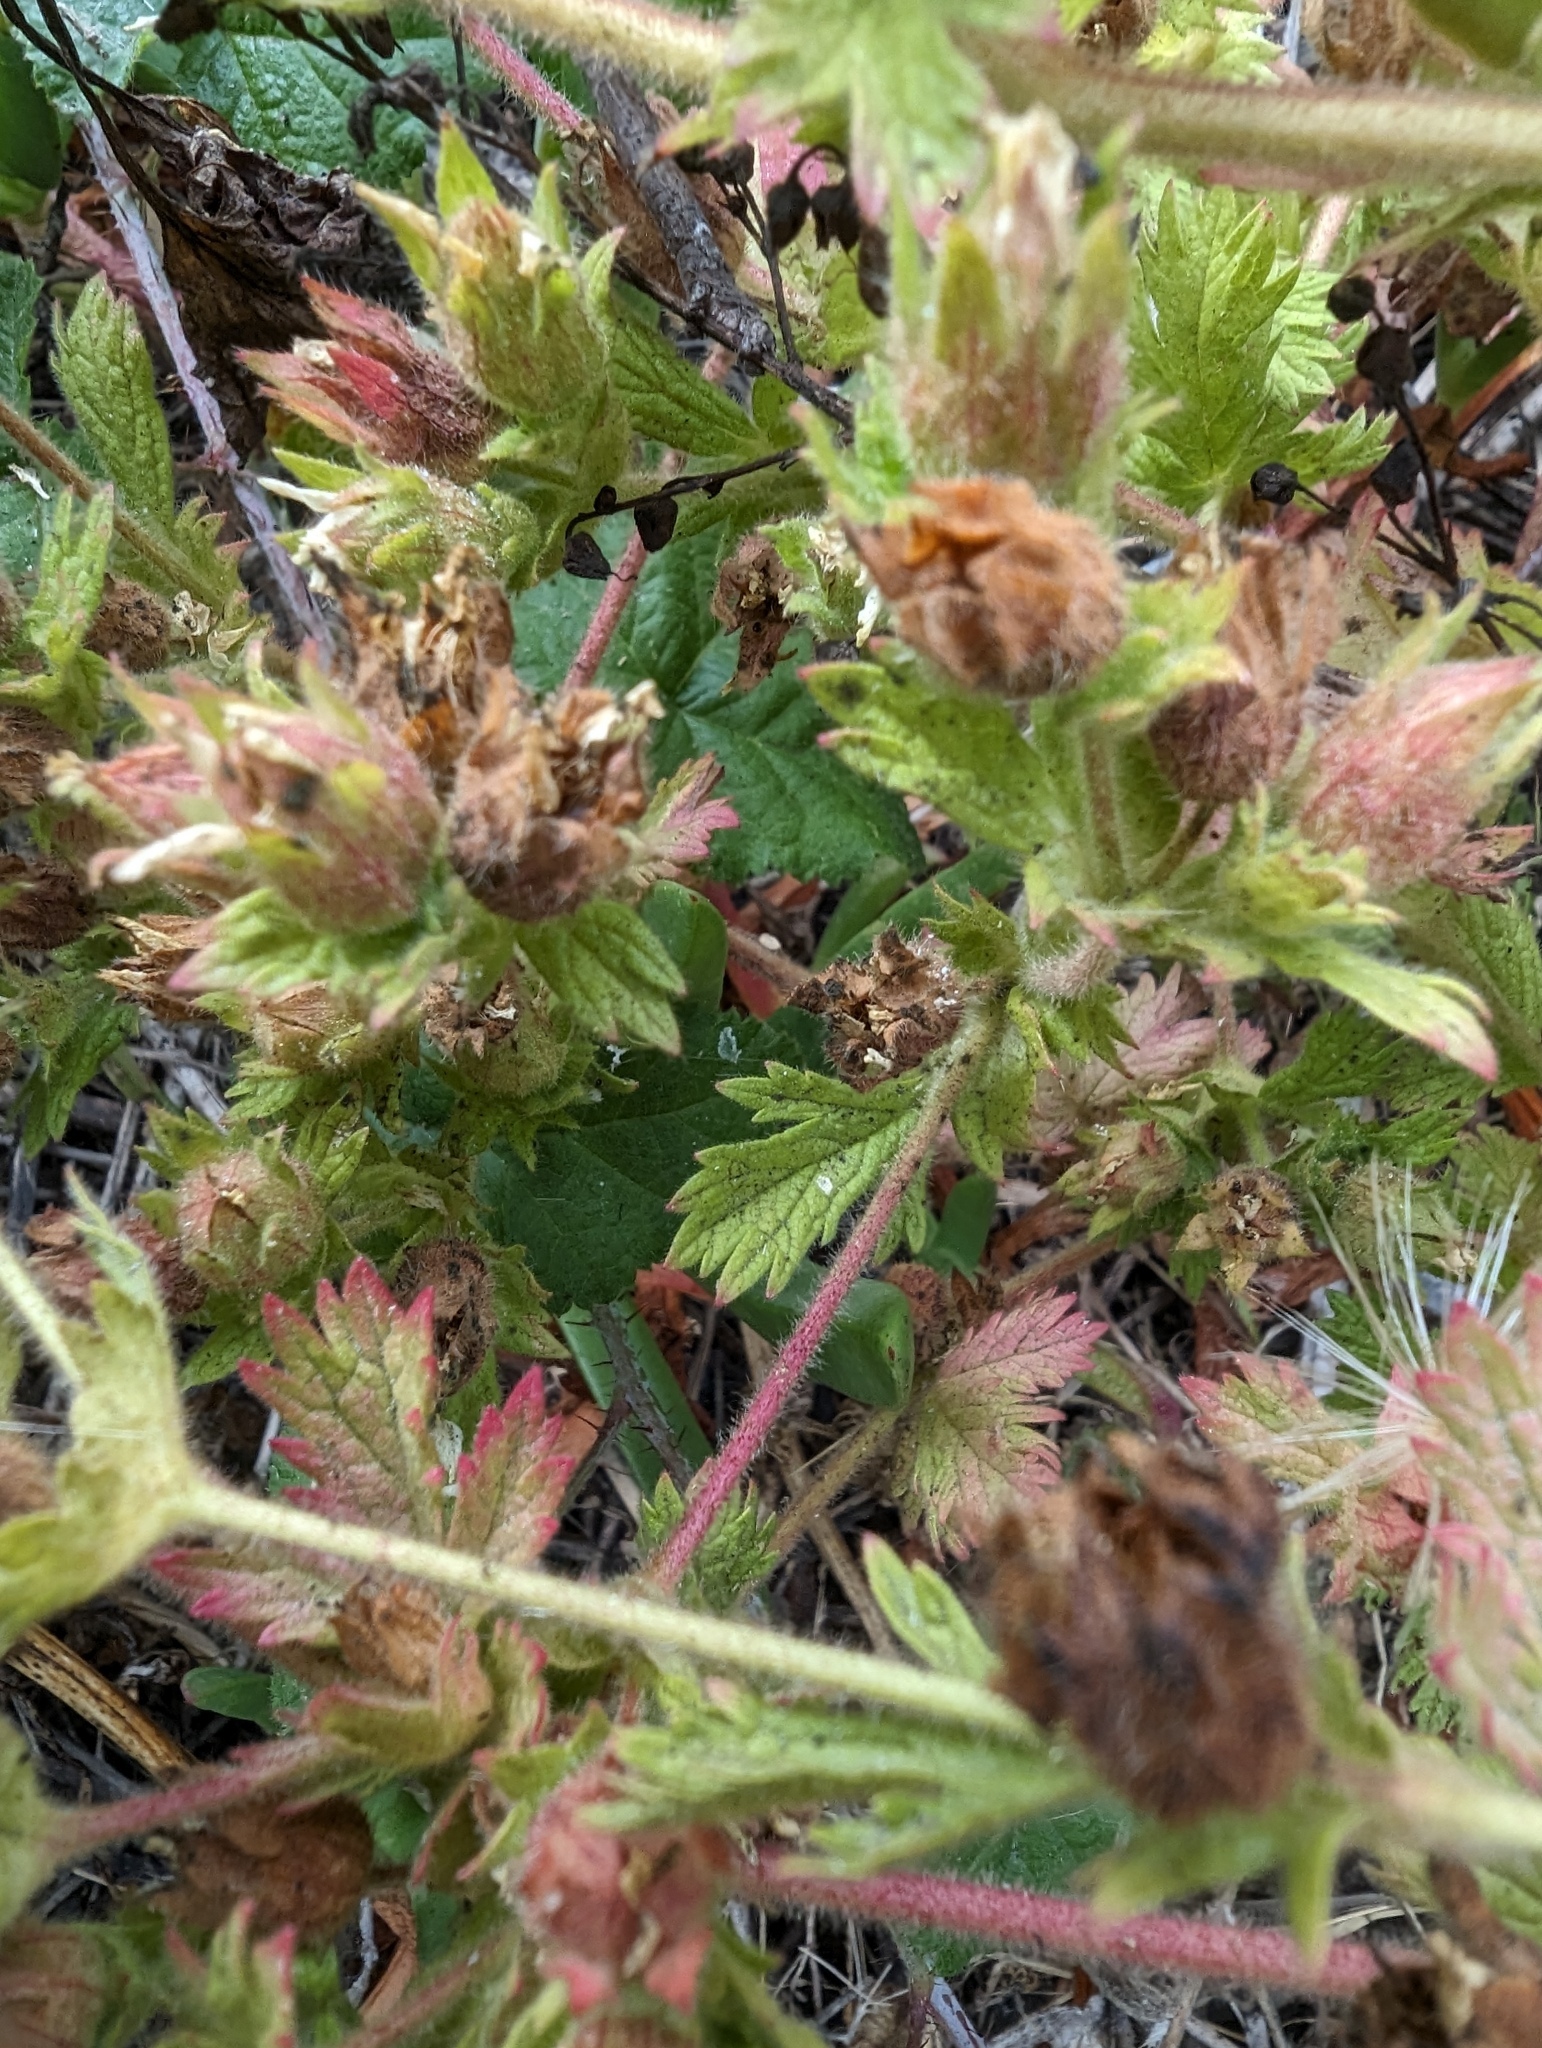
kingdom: Plantae
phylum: Tracheophyta
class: Magnoliopsida
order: Rosales
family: Rosaceae
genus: Potentilla
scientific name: Potentilla californica
